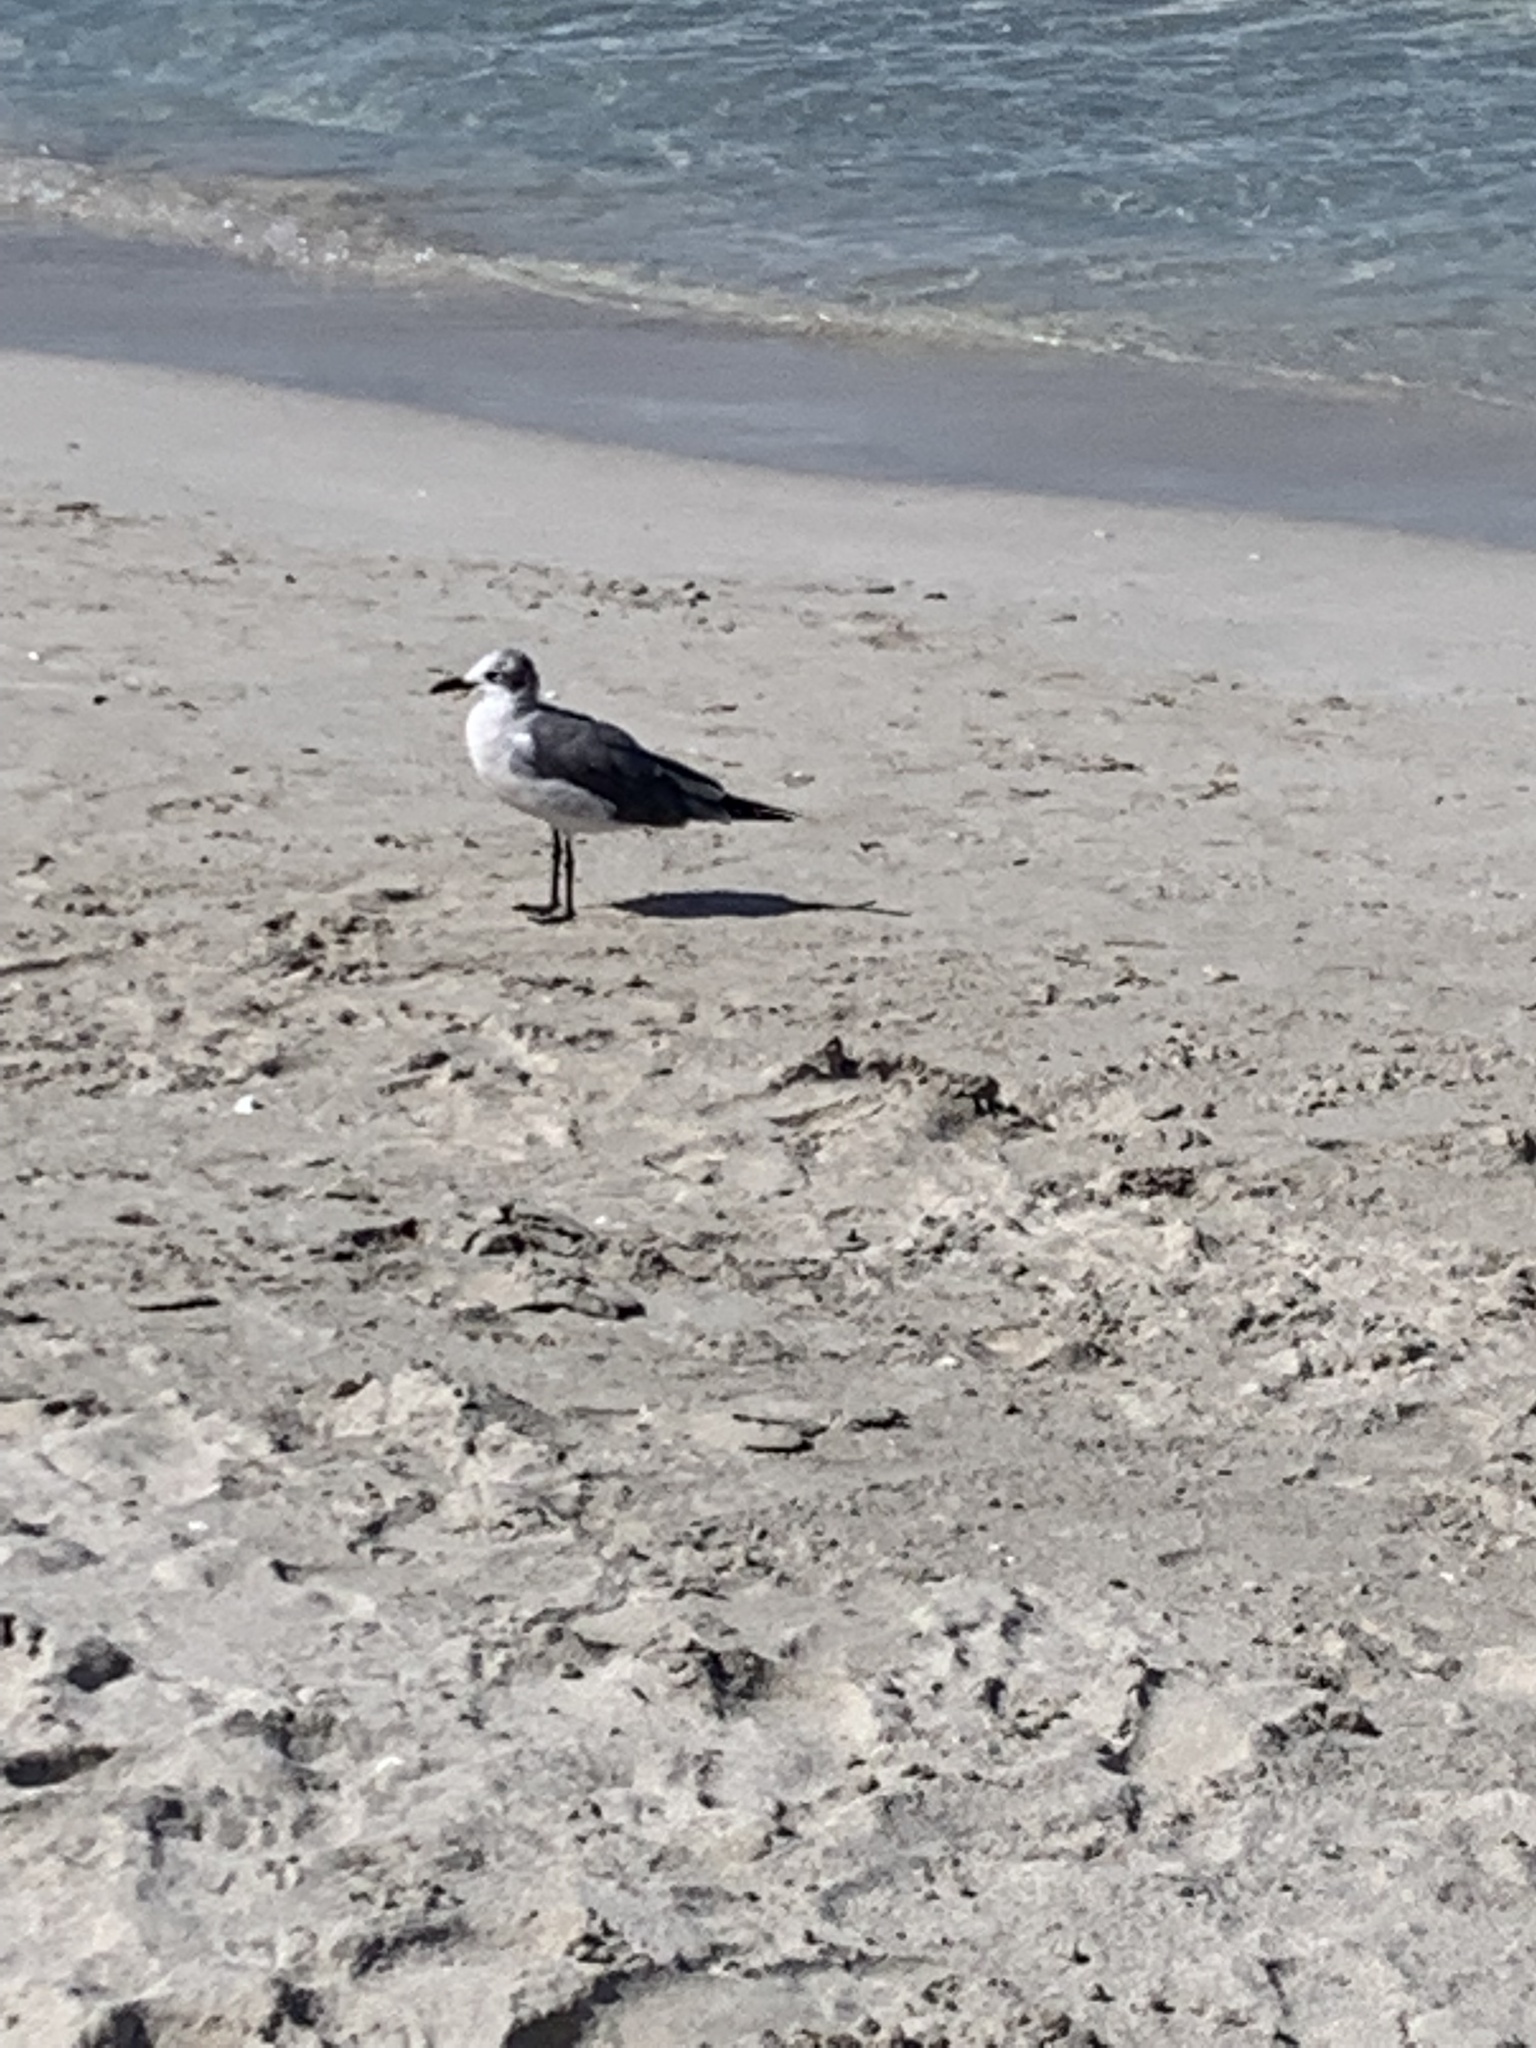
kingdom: Animalia
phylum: Chordata
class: Aves
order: Charadriiformes
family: Laridae
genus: Leucophaeus
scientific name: Leucophaeus atricilla
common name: Laughing gull
